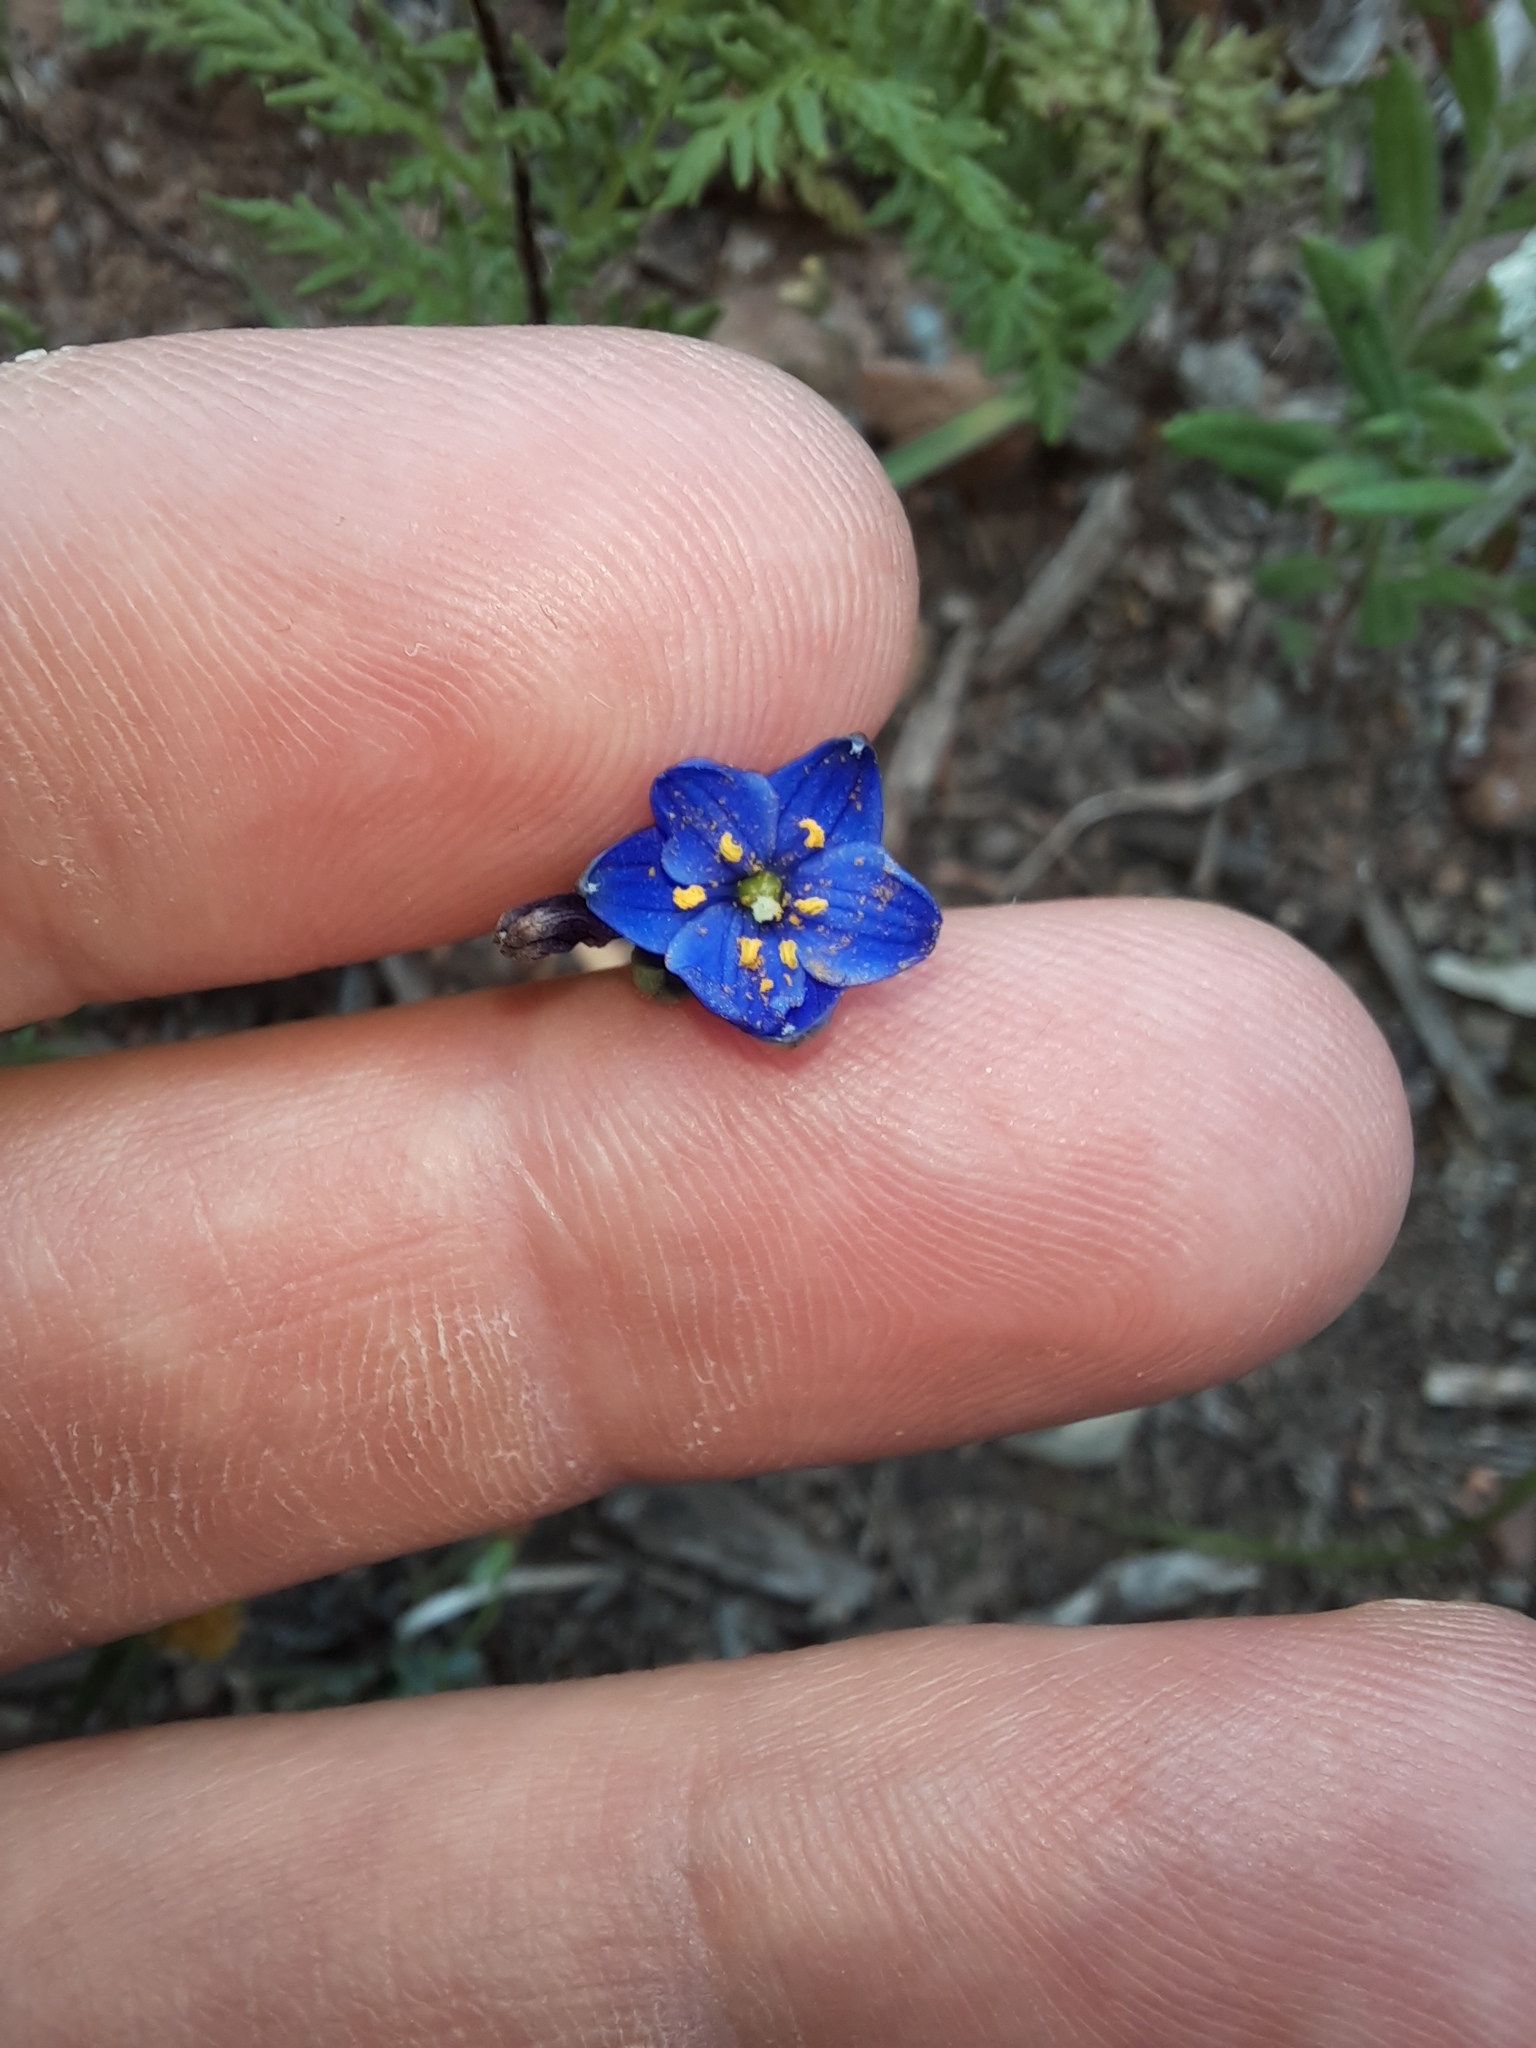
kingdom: Plantae
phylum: Tracheophyta
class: Liliopsida
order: Asparagales
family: Asphodelaceae
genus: Chamaescilla
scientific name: Chamaescilla corymbosa
